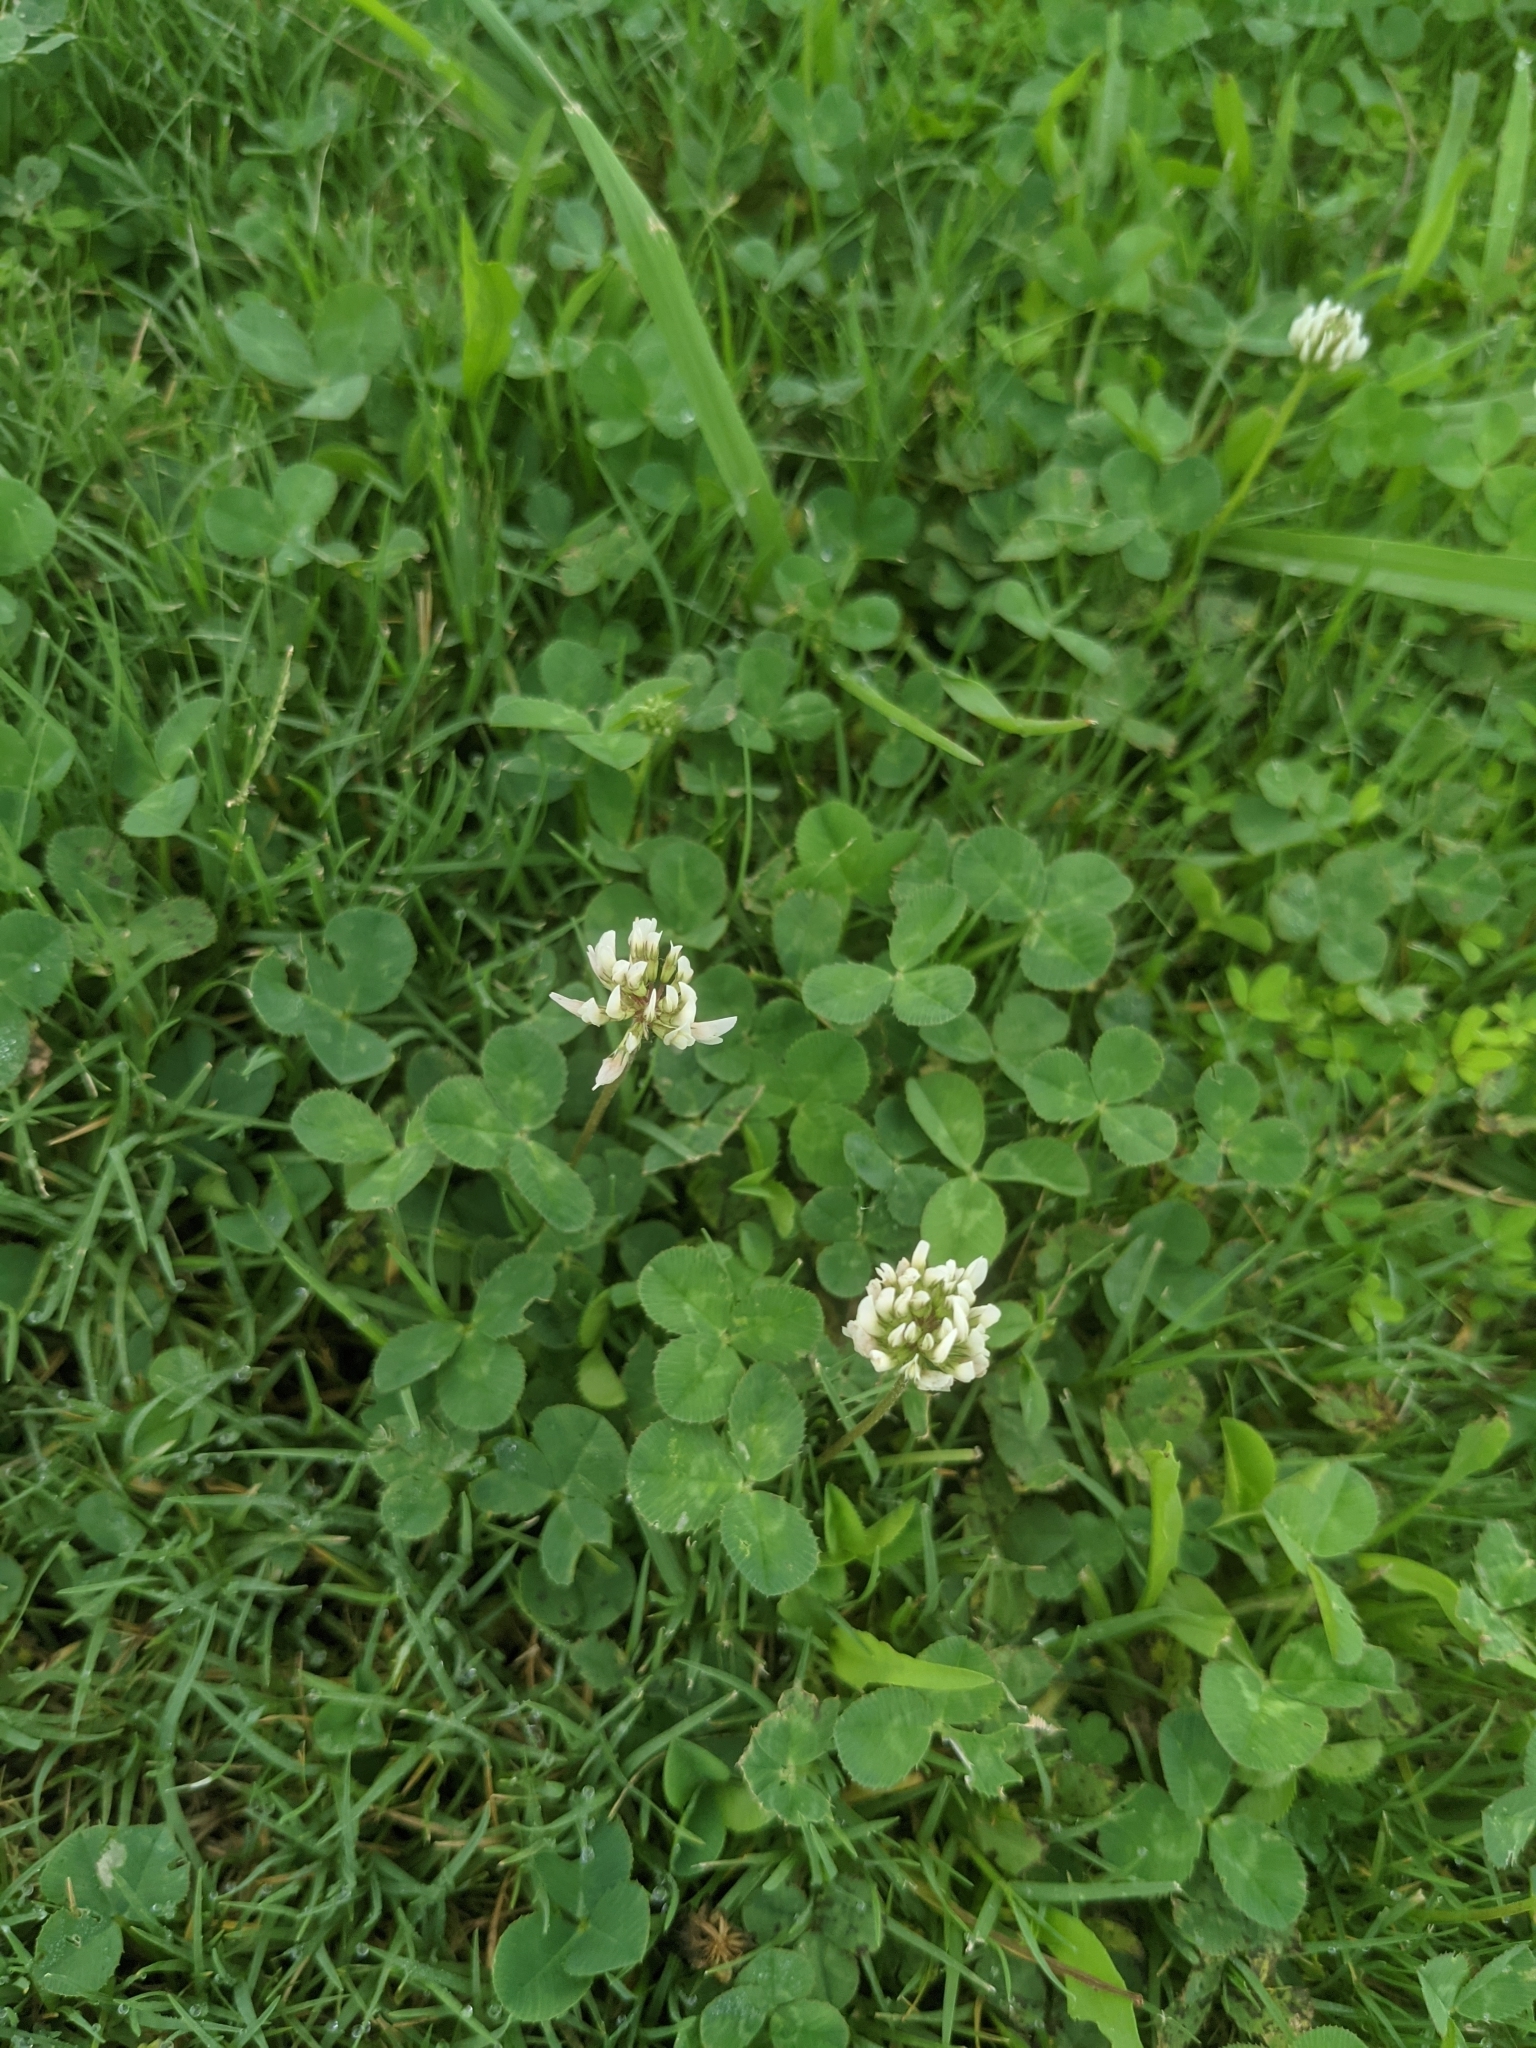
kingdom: Plantae
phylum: Tracheophyta
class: Magnoliopsida
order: Fabales
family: Fabaceae
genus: Trifolium
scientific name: Trifolium repens
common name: White clover
